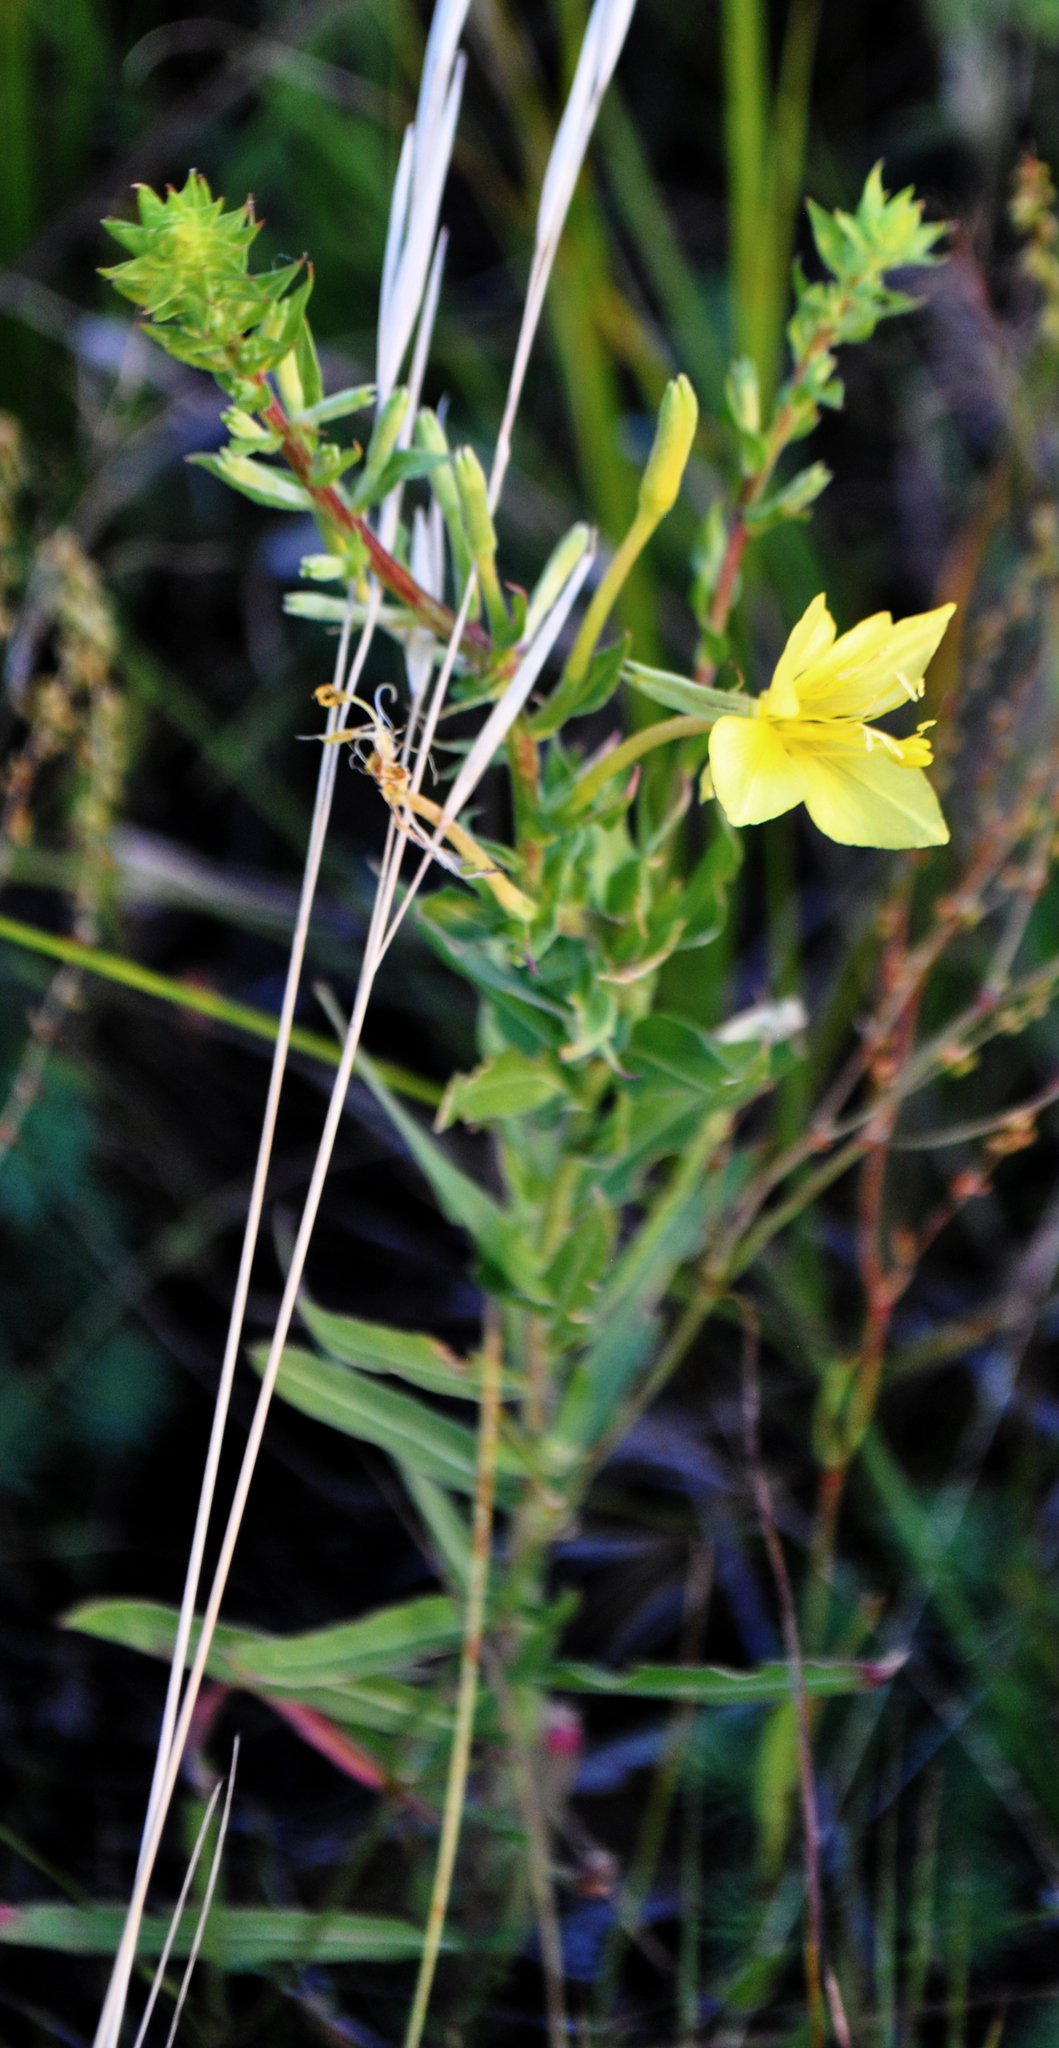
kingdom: Plantae
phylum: Tracheophyta
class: Magnoliopsida
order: Myrtales
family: Onagraceae
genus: Oenothera
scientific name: Oenothera clelandii
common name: Cleland's evening-primrose
